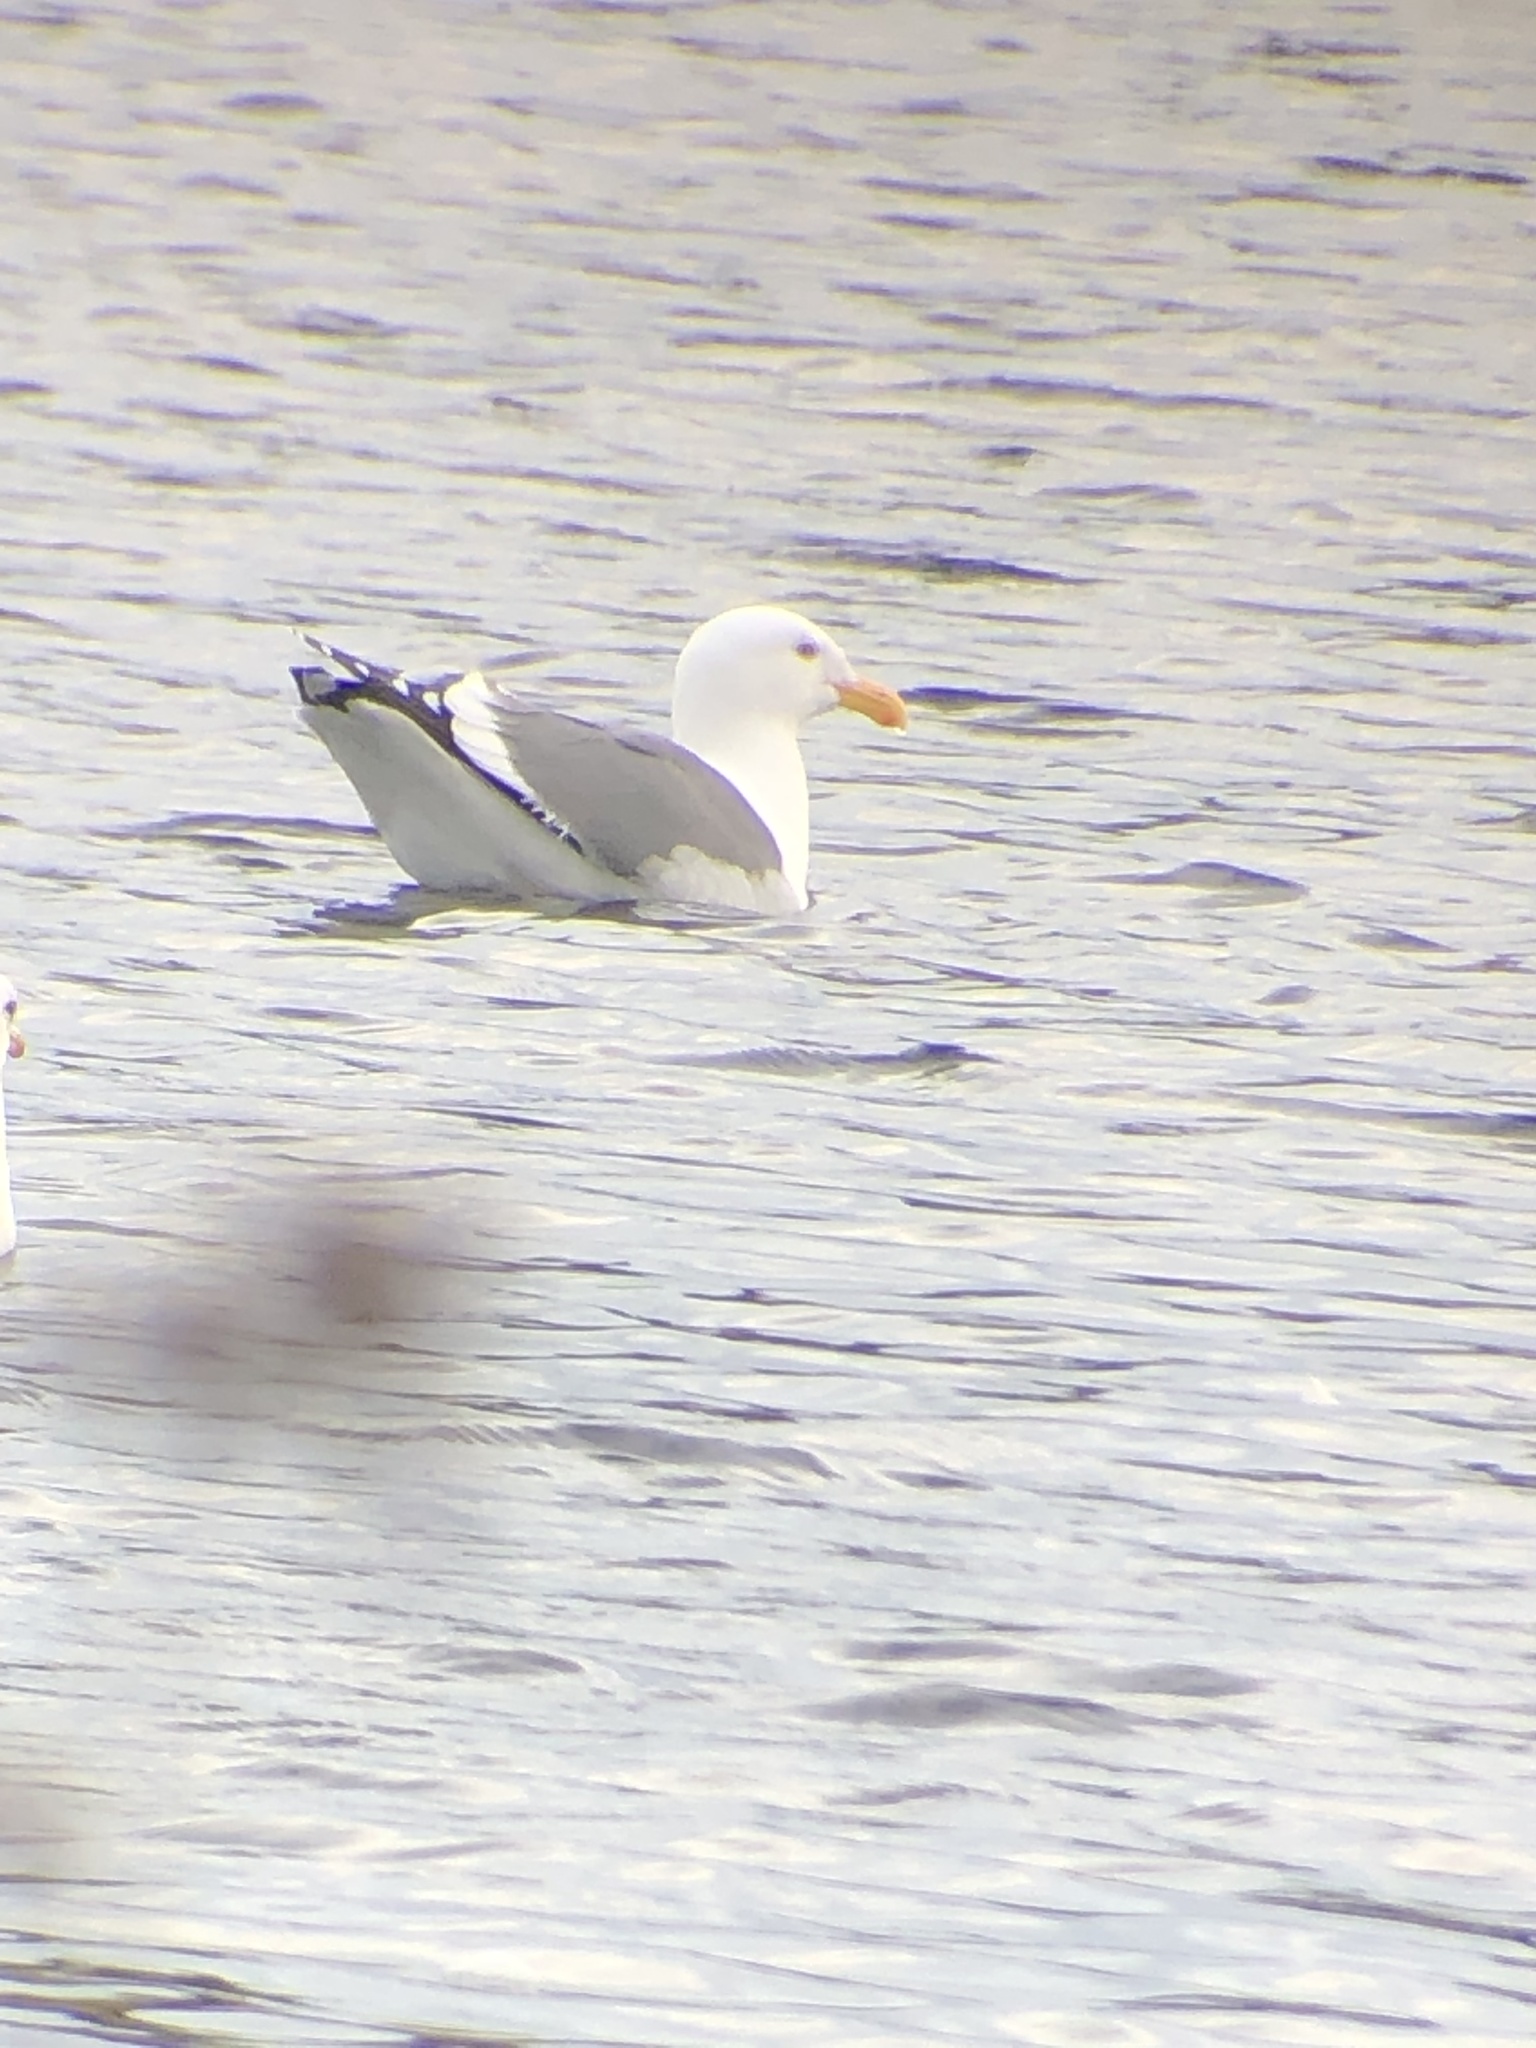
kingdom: Animalia
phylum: Chordata
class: Aves
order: Charadriiformes
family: Laridae
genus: Larus
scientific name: Larus occidentalis
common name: Western gull
